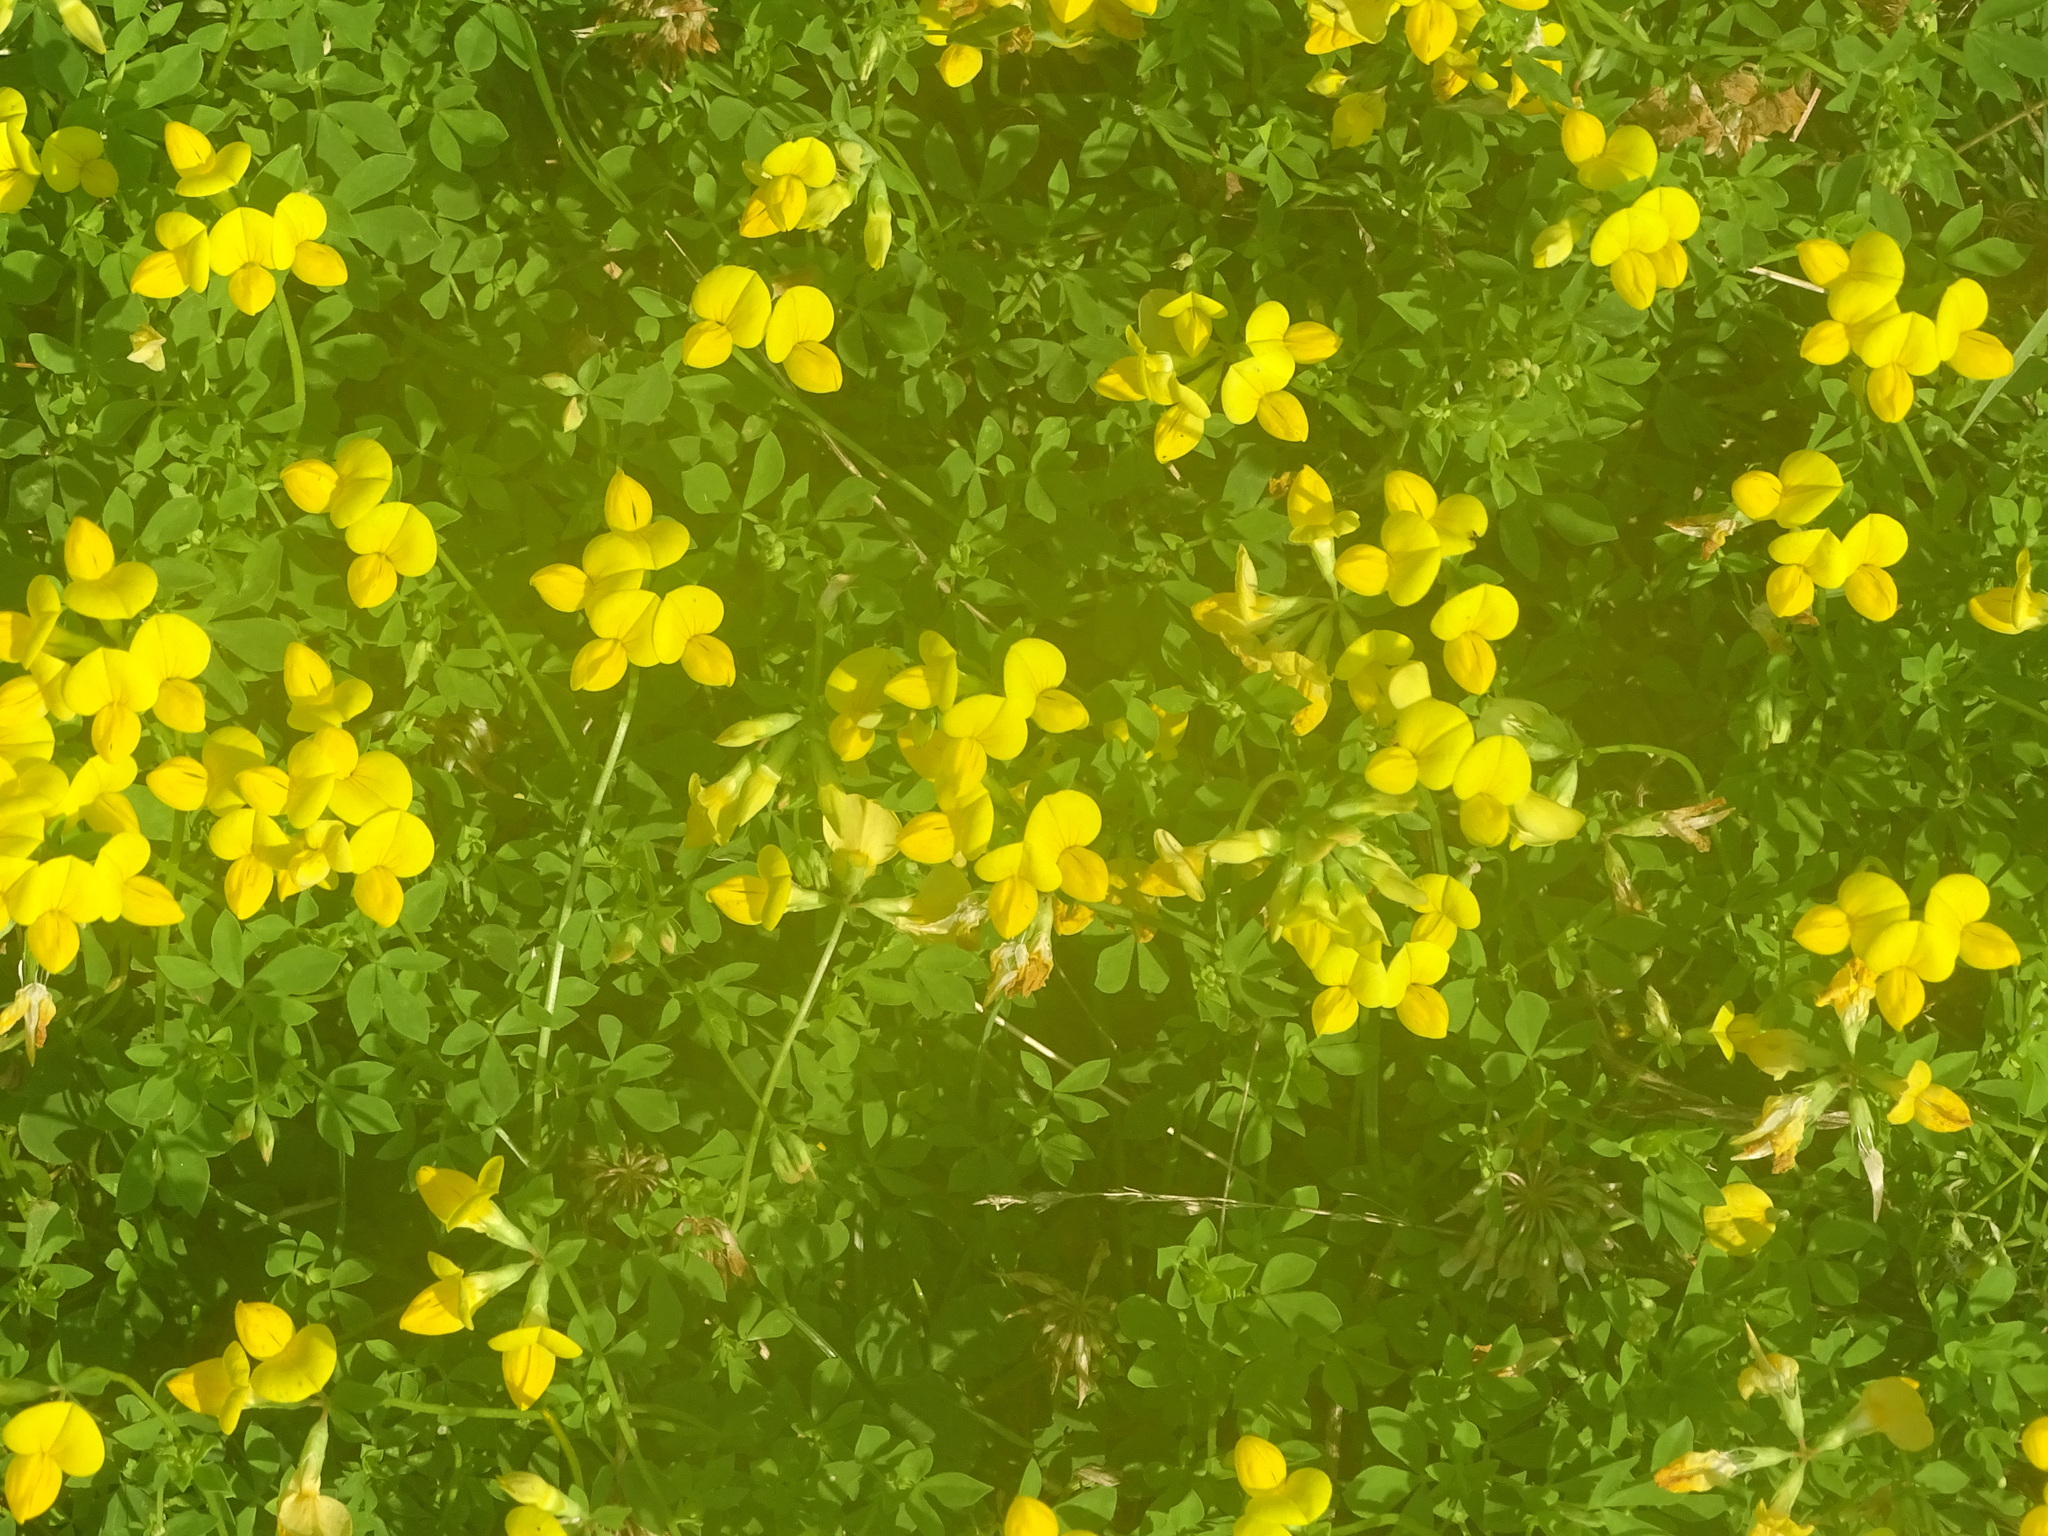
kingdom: Plantae
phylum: Tracheophyta
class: Magnoliopsida
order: Fabales
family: Fabaceae
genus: Lotus
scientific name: Lotus corniculatus
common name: Common bird's-foot-trefoil
